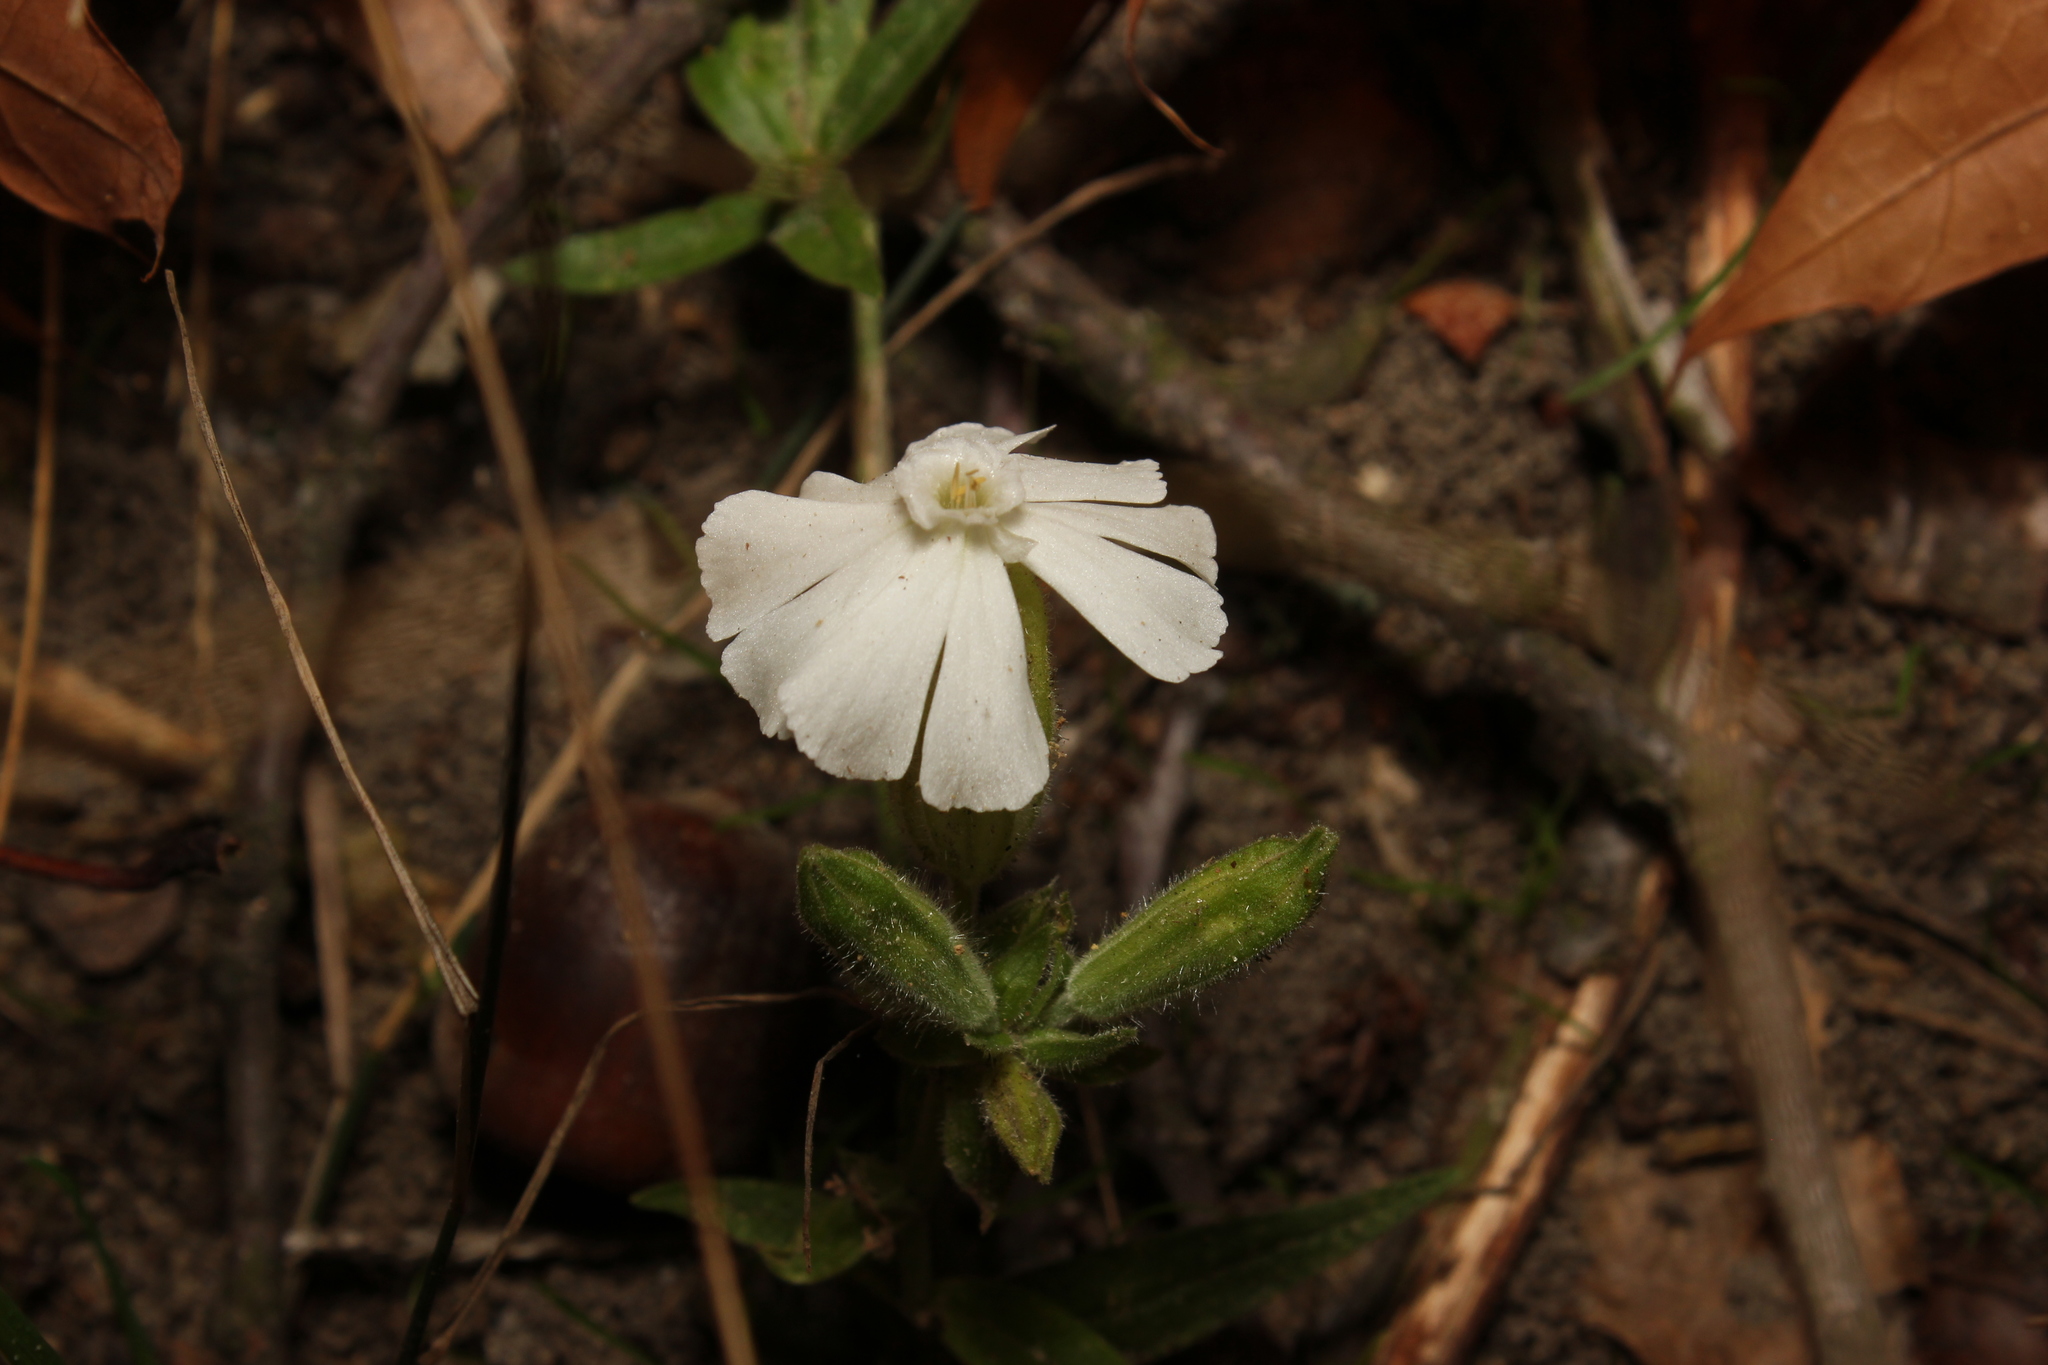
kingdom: Plantae
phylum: Tracheophyta
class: Magnoliopsida
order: Caryophyllales
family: Caryophyllaceae
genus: Silene
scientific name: Silene latifolia
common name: White campion
